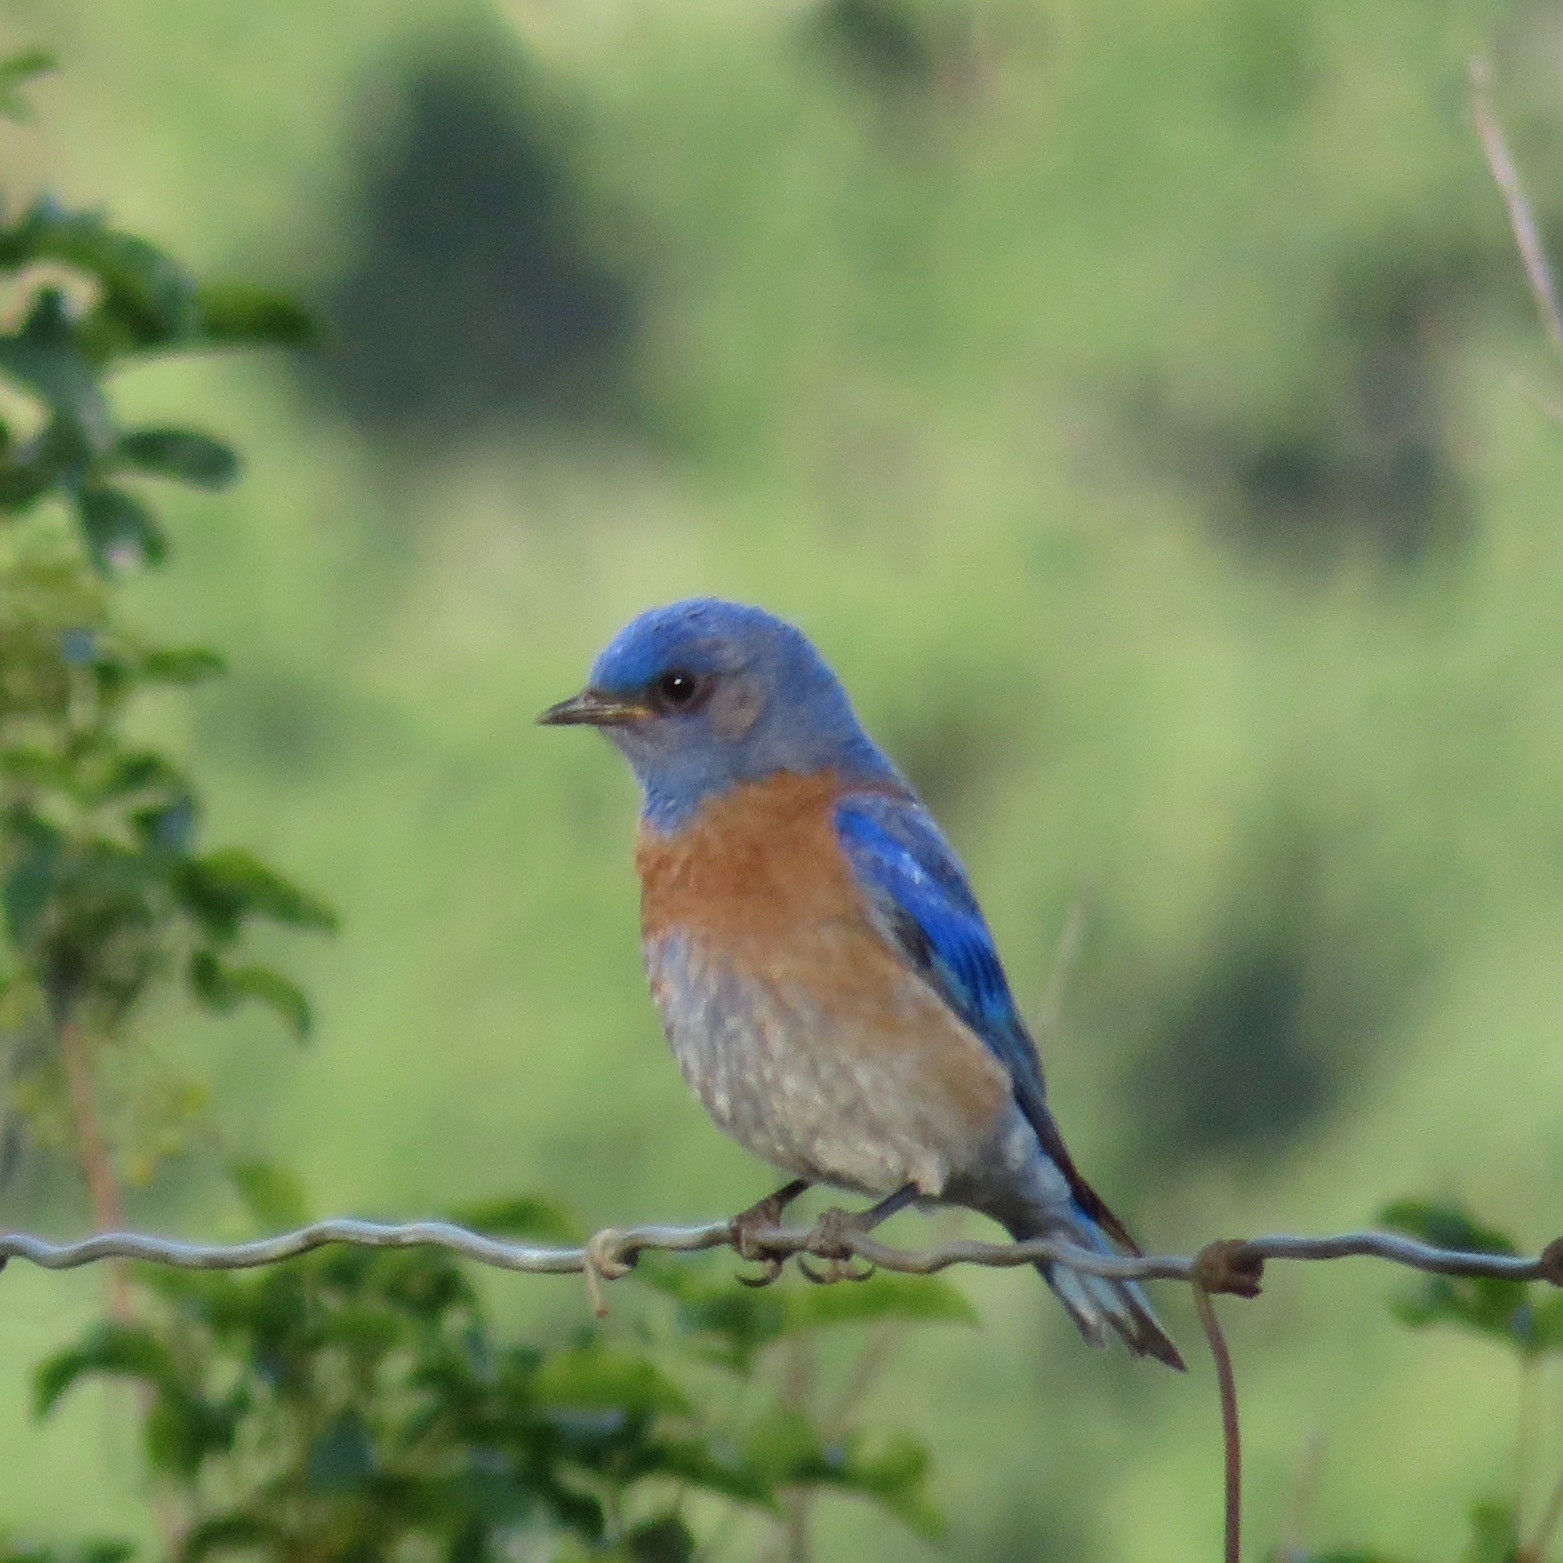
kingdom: Animalia
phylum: Chordata
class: Aves
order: Passeriformes
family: Turdidae
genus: Sialia
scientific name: Sialia mexicana
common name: Western bluebird
